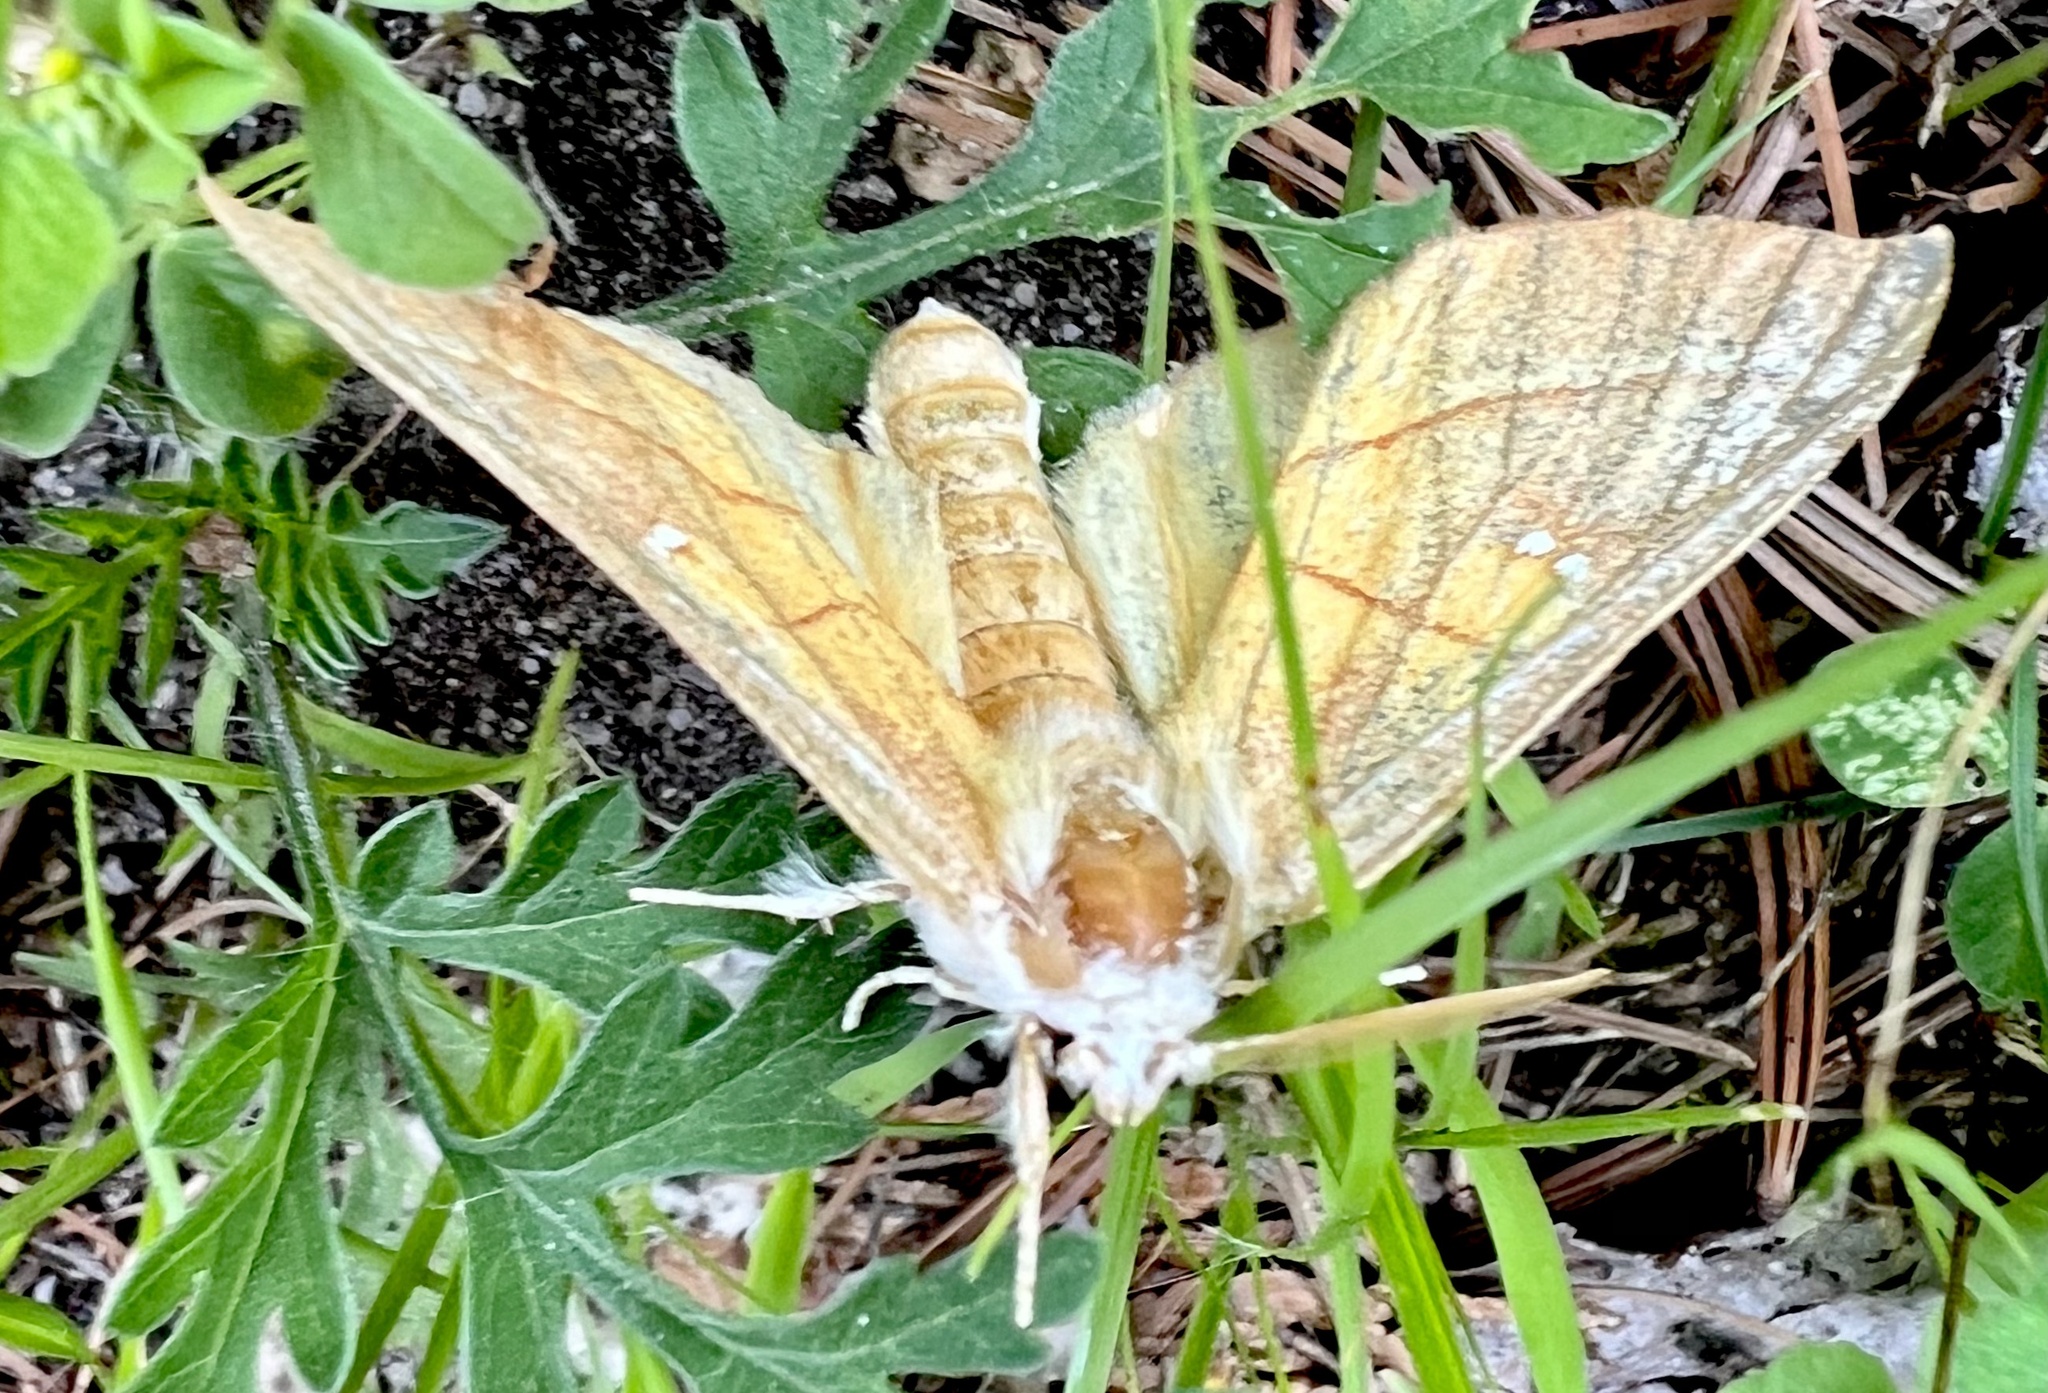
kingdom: Animalia
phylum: Arthropoda
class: Insecta
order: Lepidoptera
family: Notodontidae
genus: Nadata
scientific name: Nadata gibbosa
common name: White-dotted prominent
